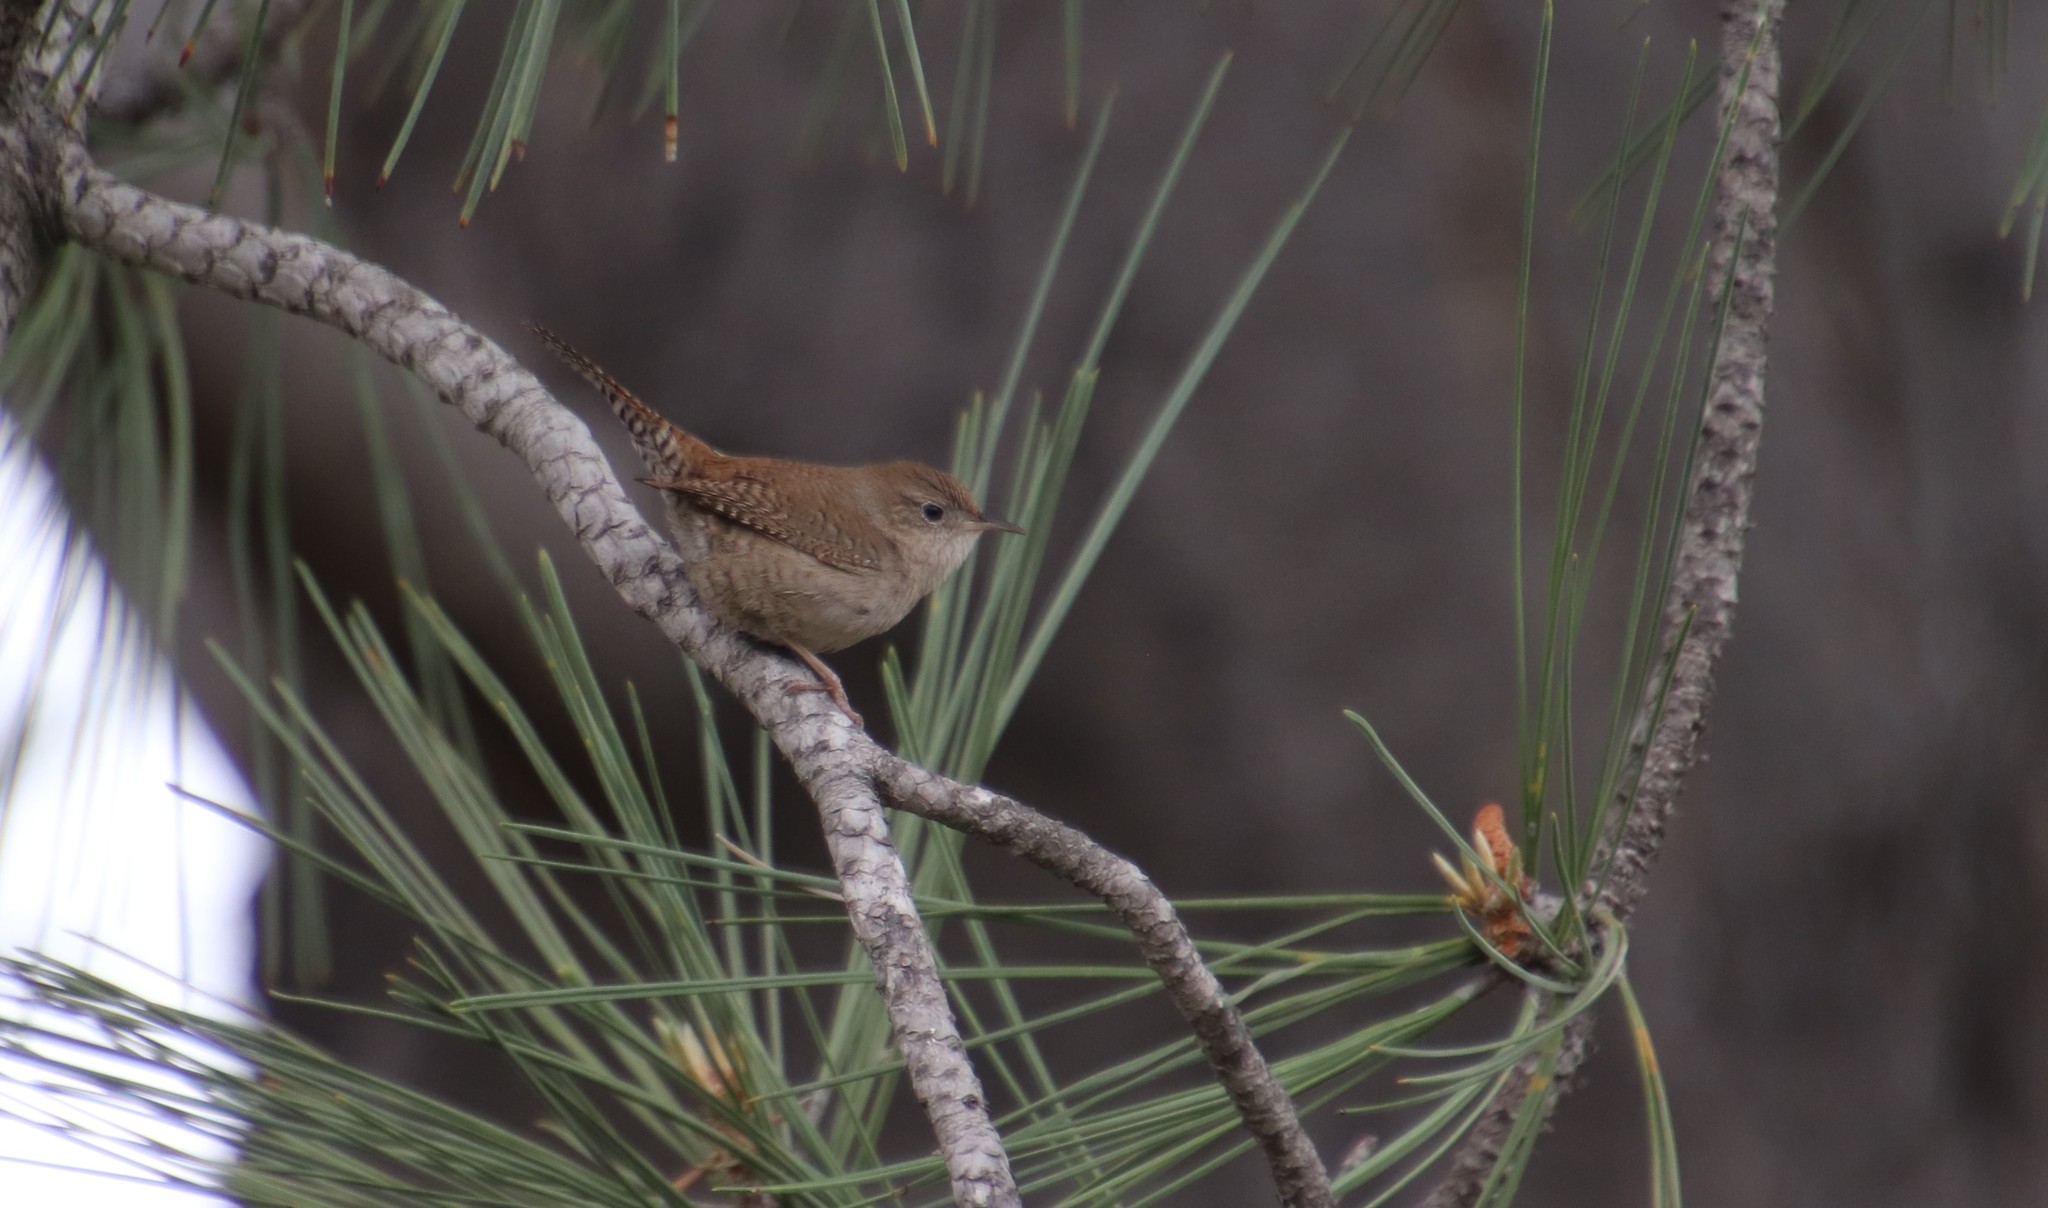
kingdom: Animalia
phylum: Chordata
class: Aves
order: Passeriformes
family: Troglodytidae
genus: Troglodytes
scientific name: Troglodytes aedon
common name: House wren
